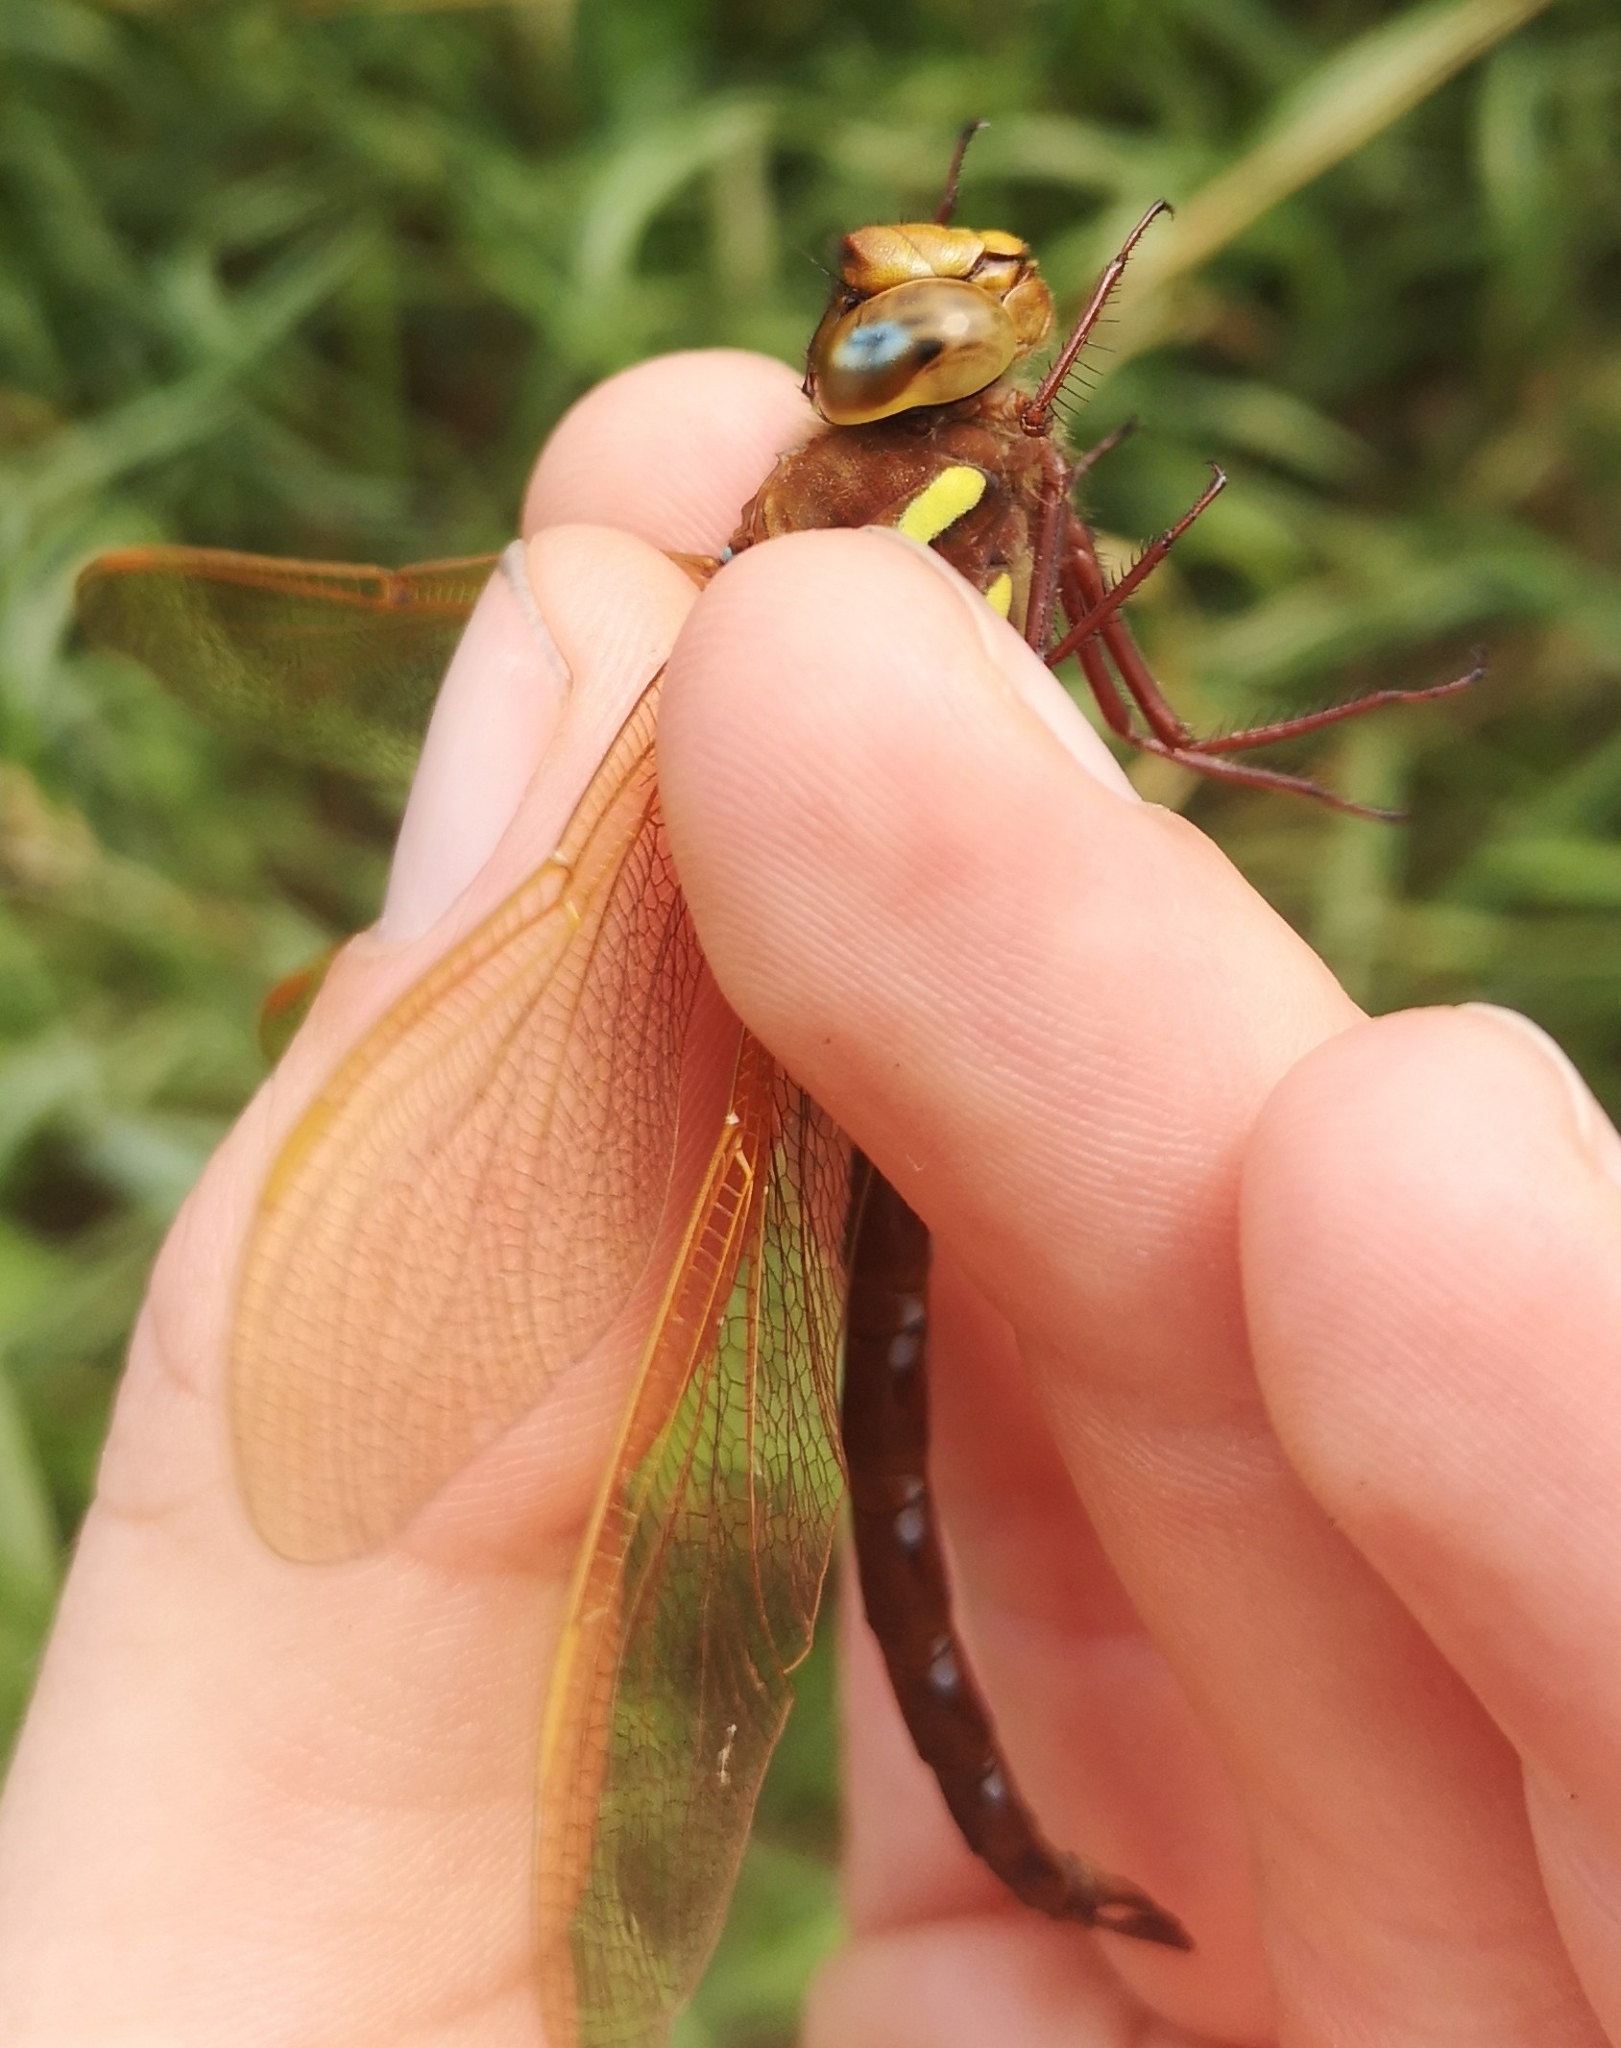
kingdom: Animalia
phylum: Arthropoda
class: Insecta
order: Odonata
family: Aeshnidae
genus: Aeshna
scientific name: Aeshna grandis
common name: Brown hawker
